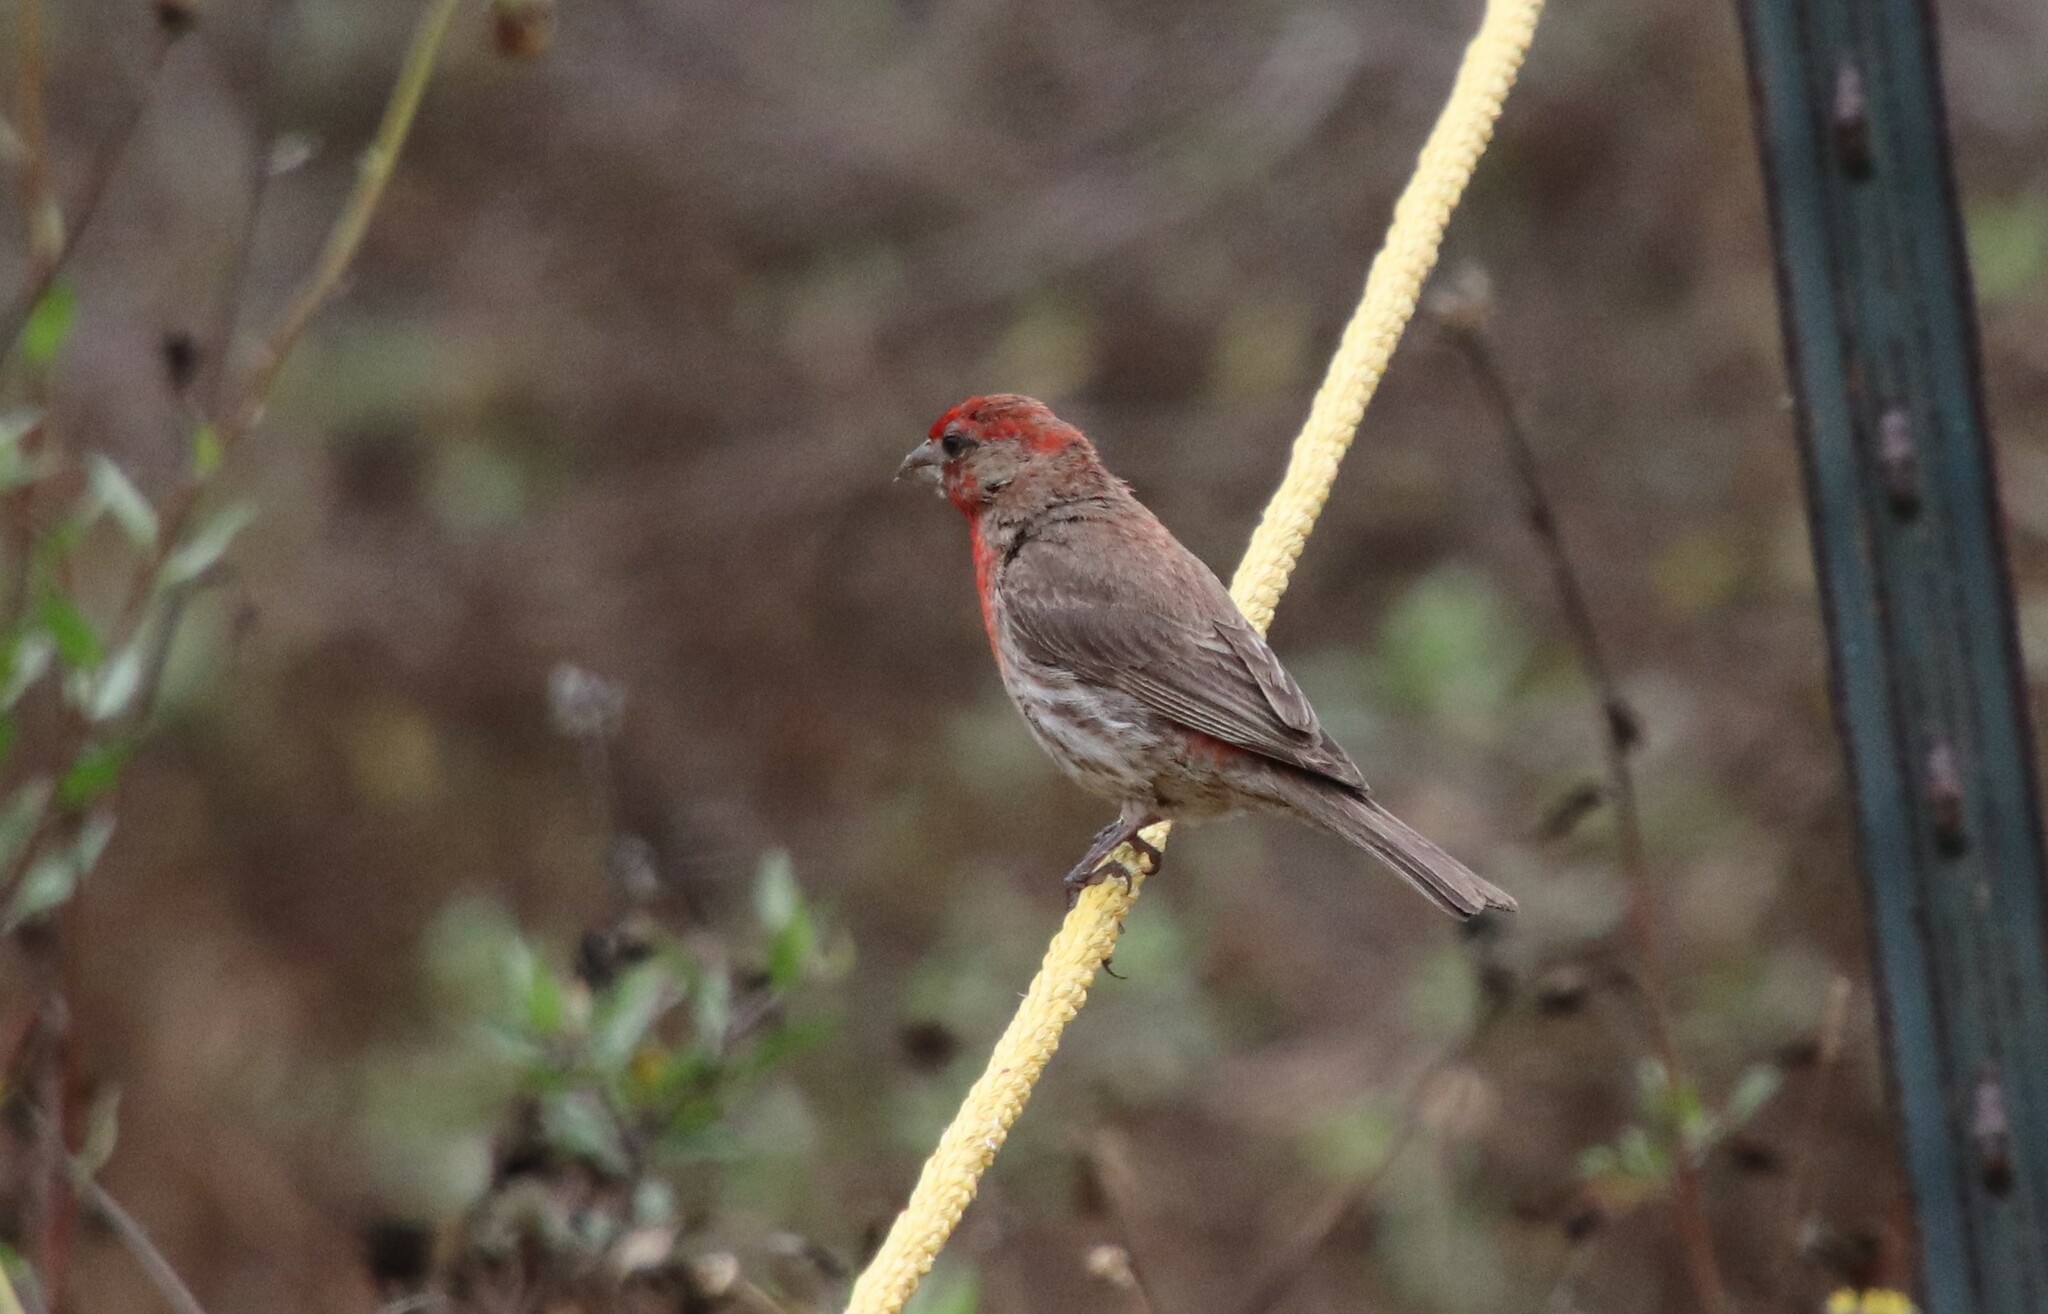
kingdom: Animalia
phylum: Chordata
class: Aves
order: Passeriformes
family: Fringillidae
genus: Haemorhous
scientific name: Haemorhous mexicanus
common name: House finch
